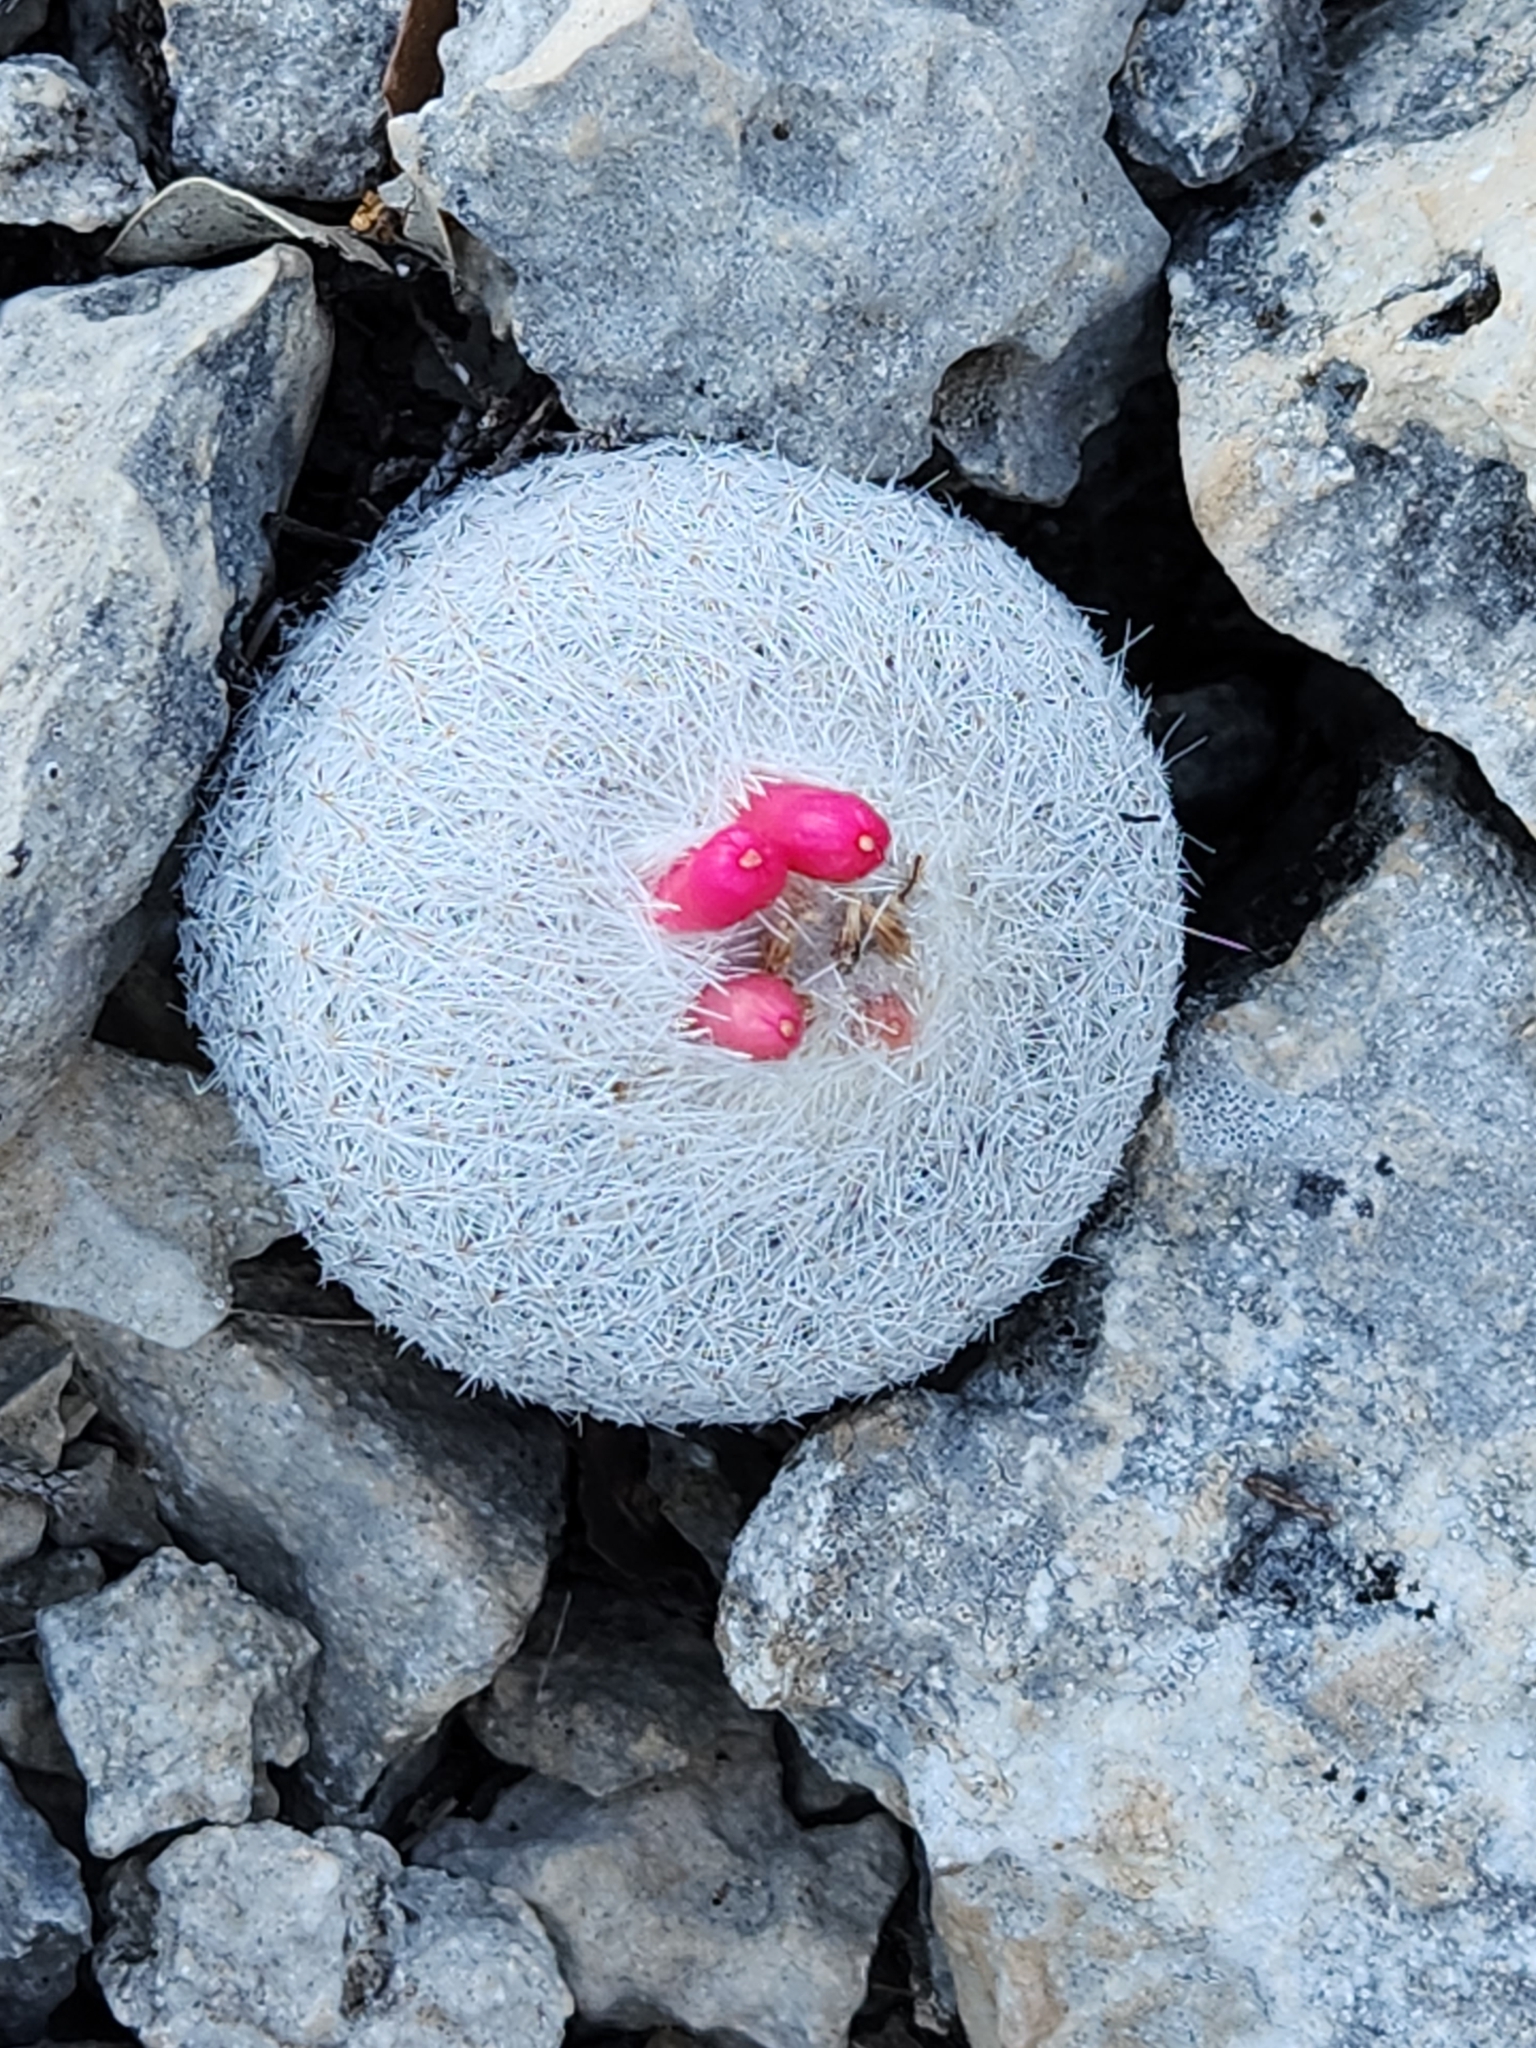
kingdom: Plantae
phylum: Tracheophyta
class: Magnoliopsida
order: Caryophyllales
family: Cactaceae
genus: Epithelantha
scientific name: Epithelantha micromeris
